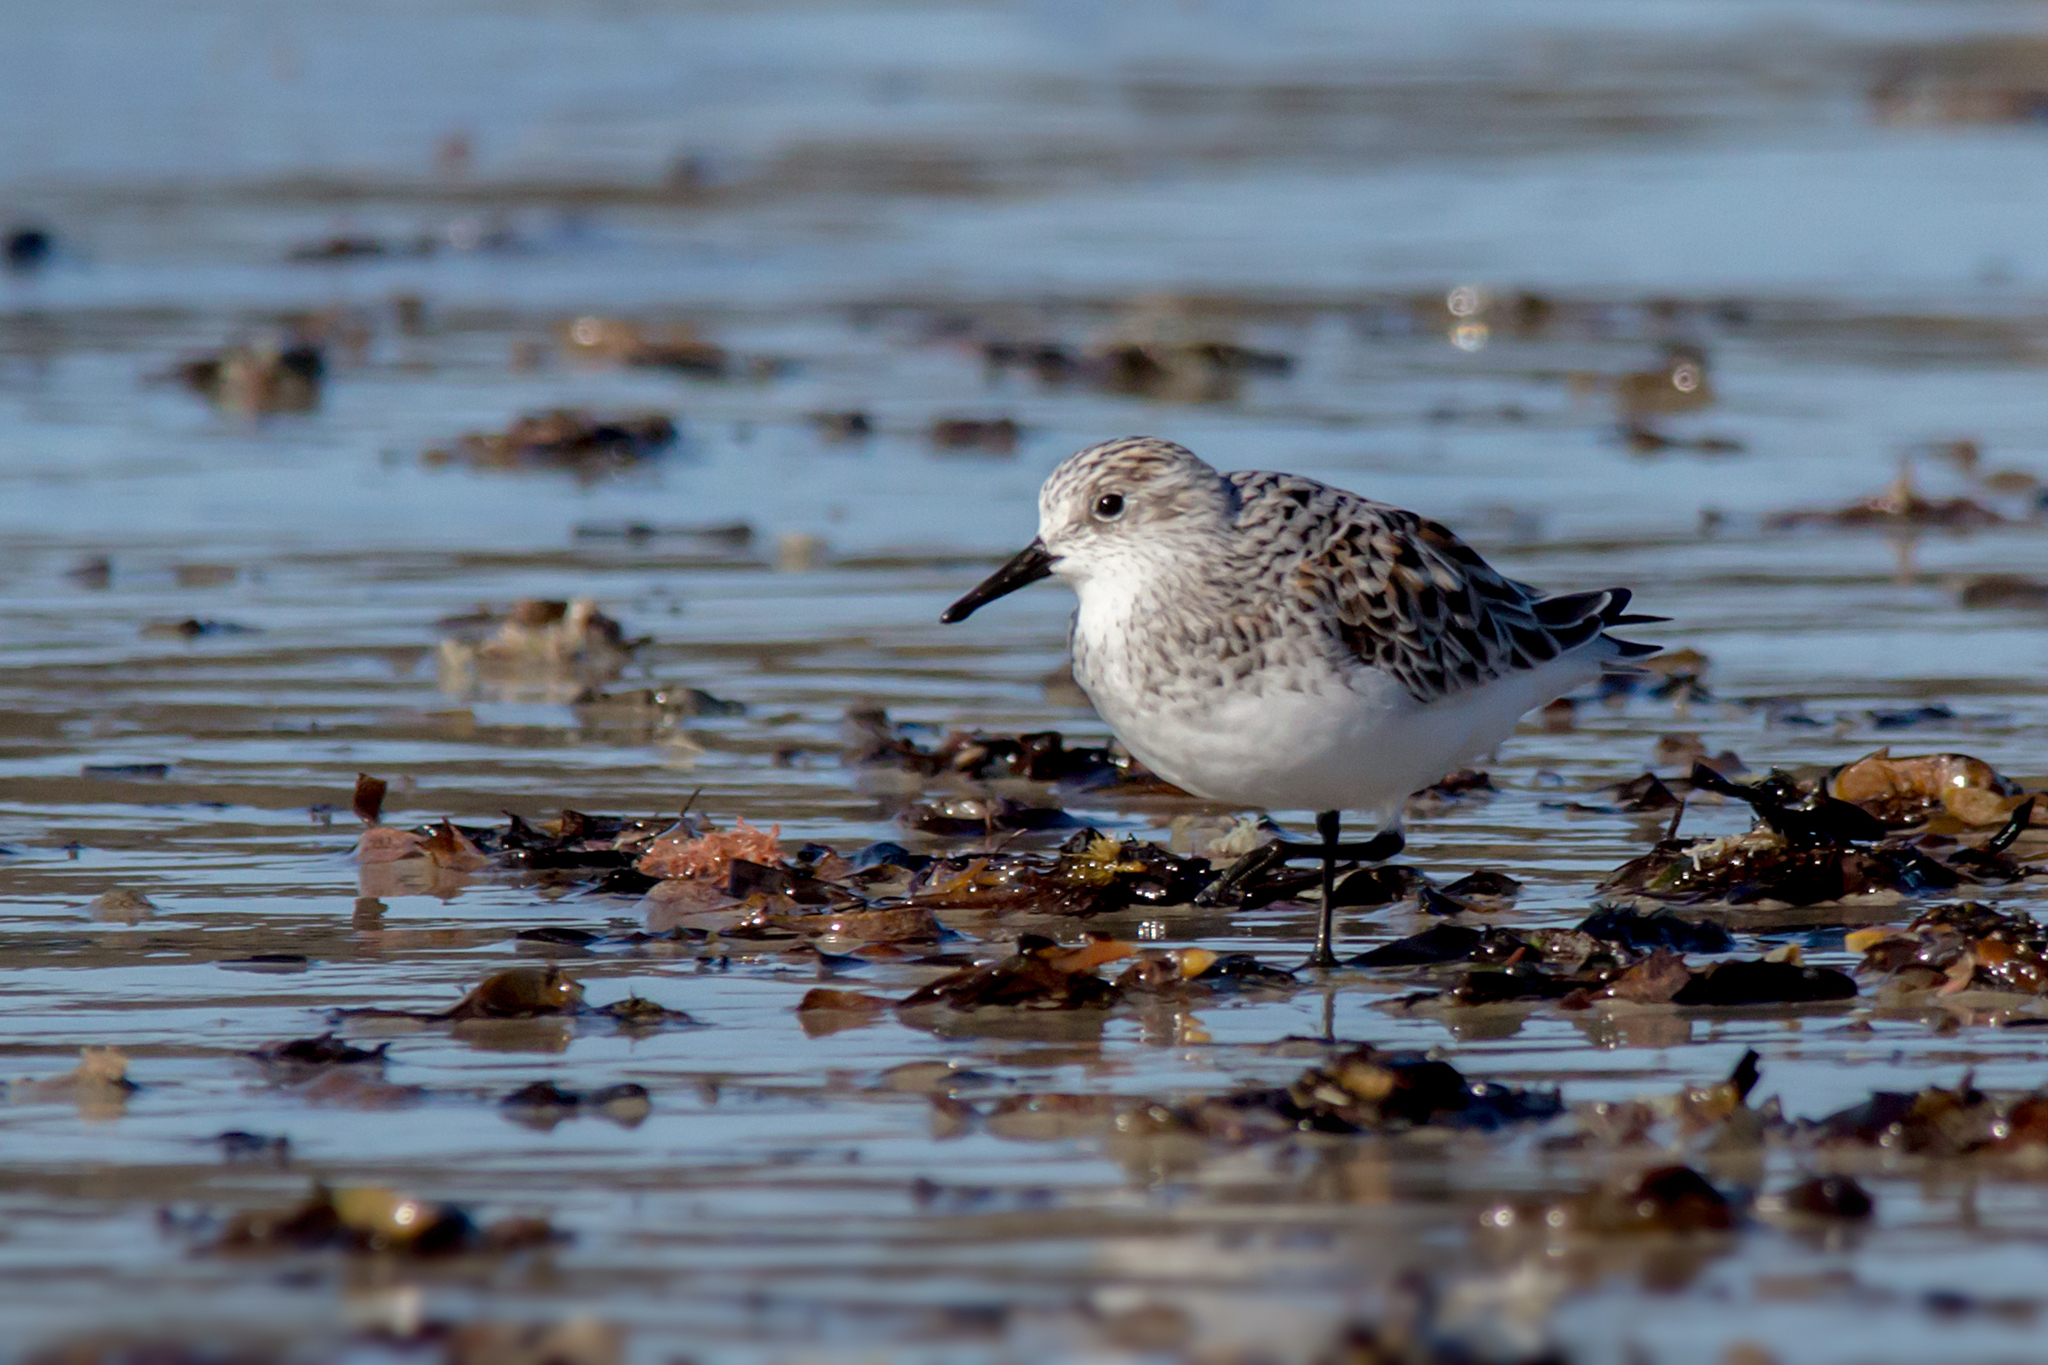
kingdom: Animalia
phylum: Chordata
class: Aves
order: Charadriiformes
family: Scolopacidae
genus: Calidris
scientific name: Calidris alba
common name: Sanderling
